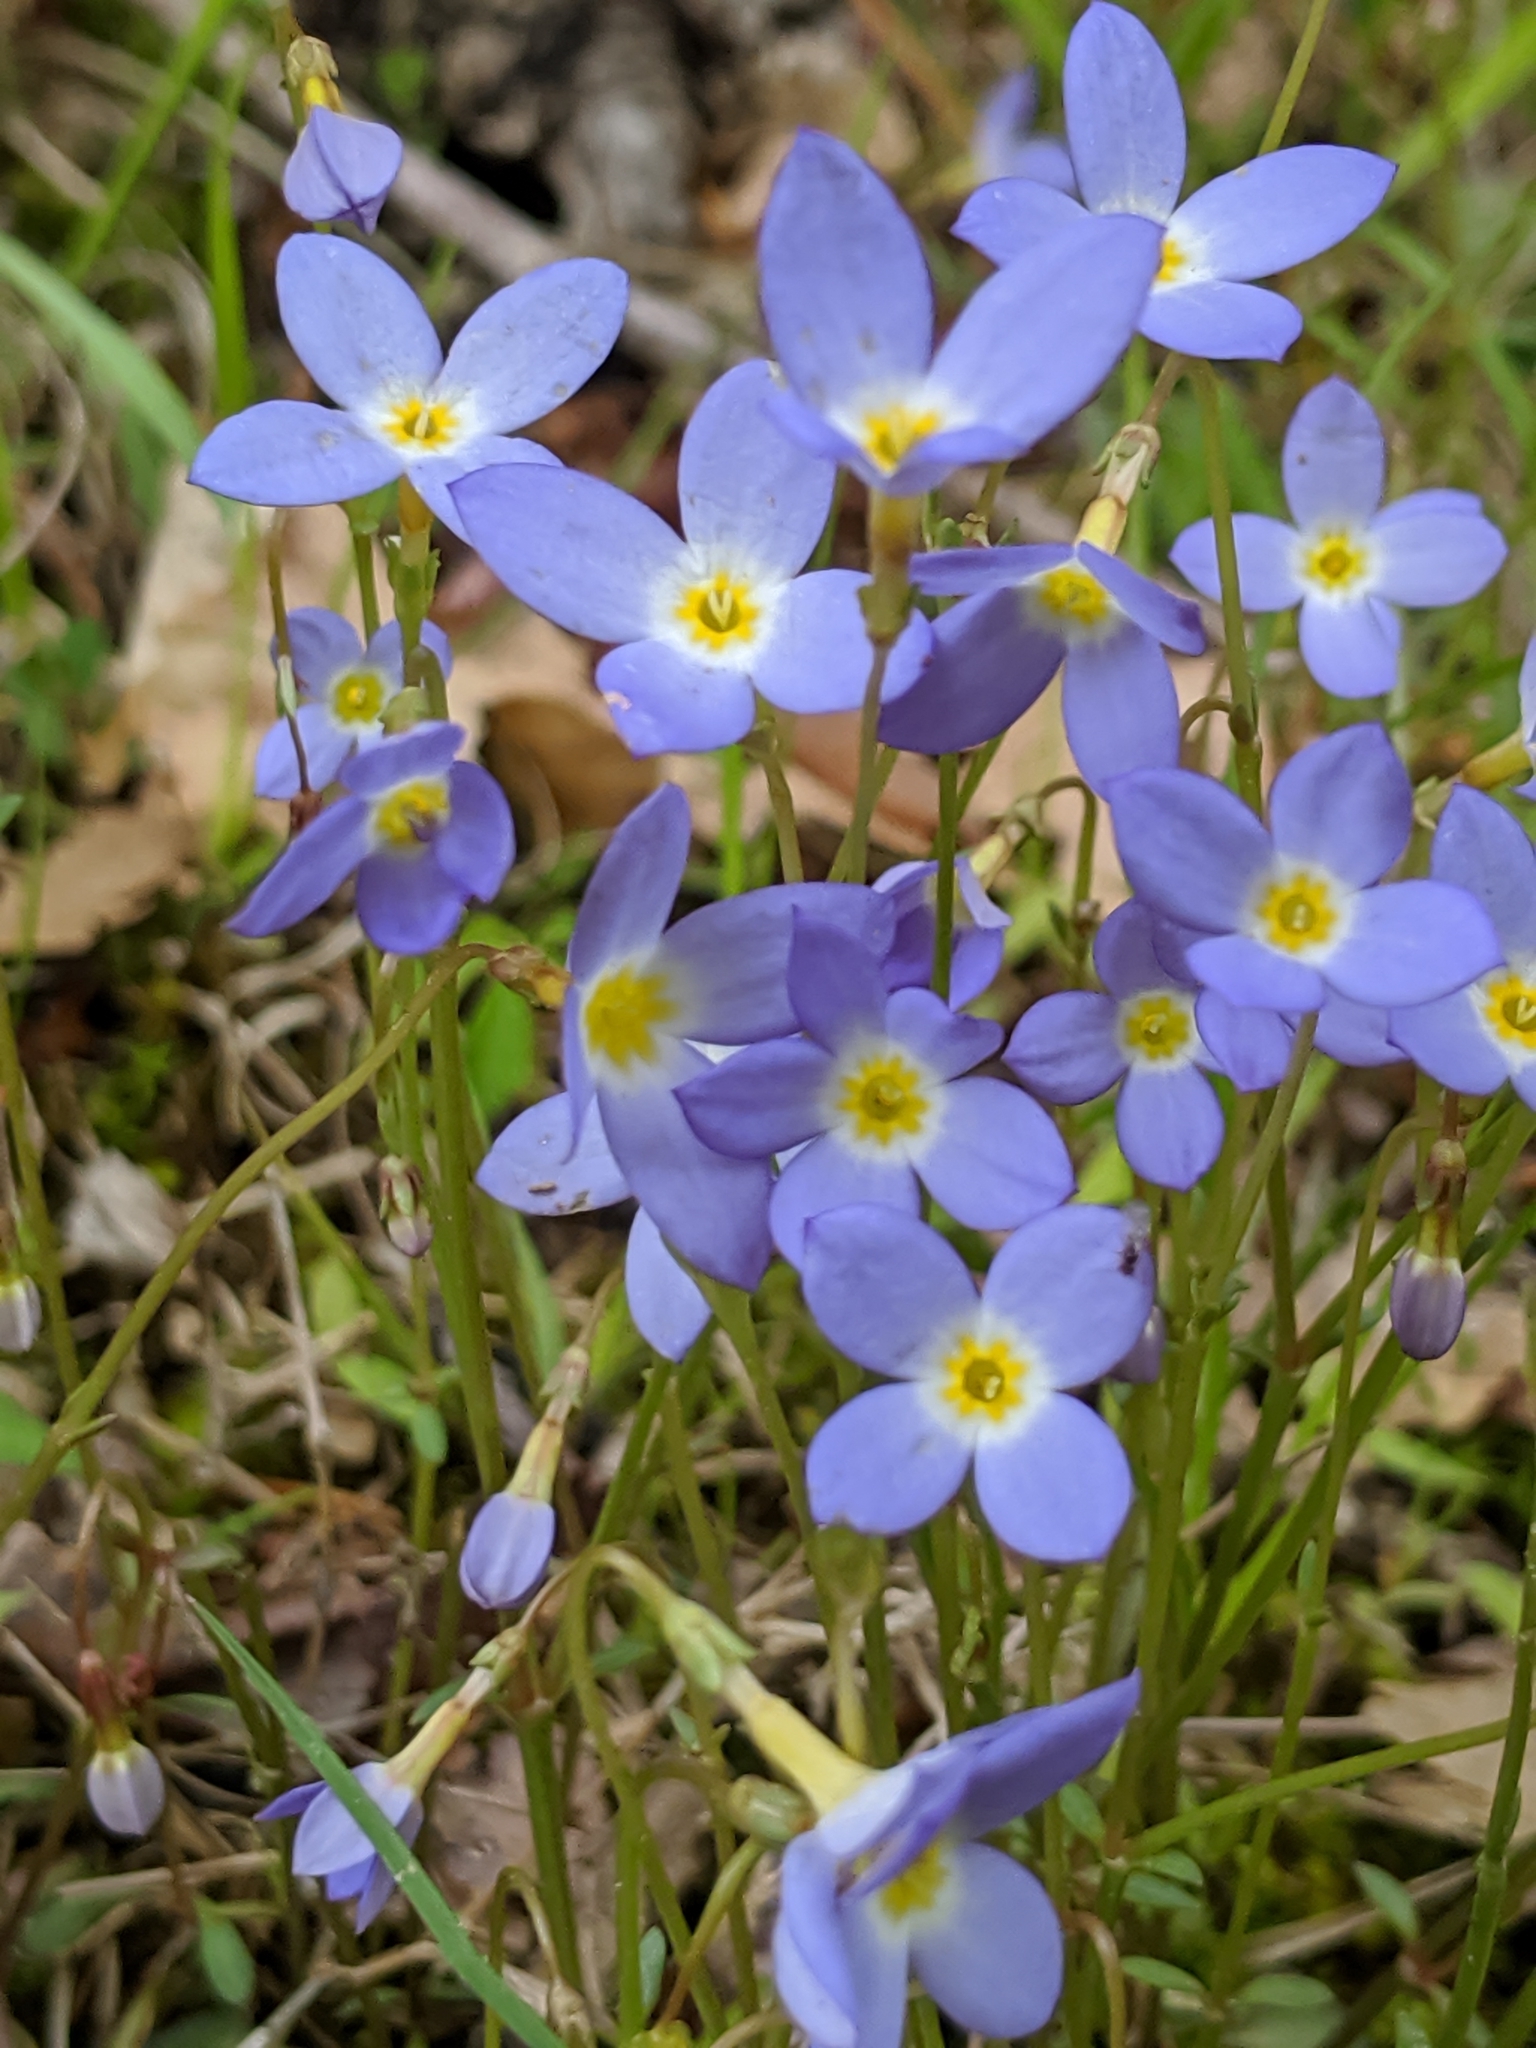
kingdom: Plantae
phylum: Tracheophyta
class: Magnoliopsida
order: Gentianales
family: Rubiaceae
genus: Houstonia
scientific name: Houstonia caerulea
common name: Bluets
